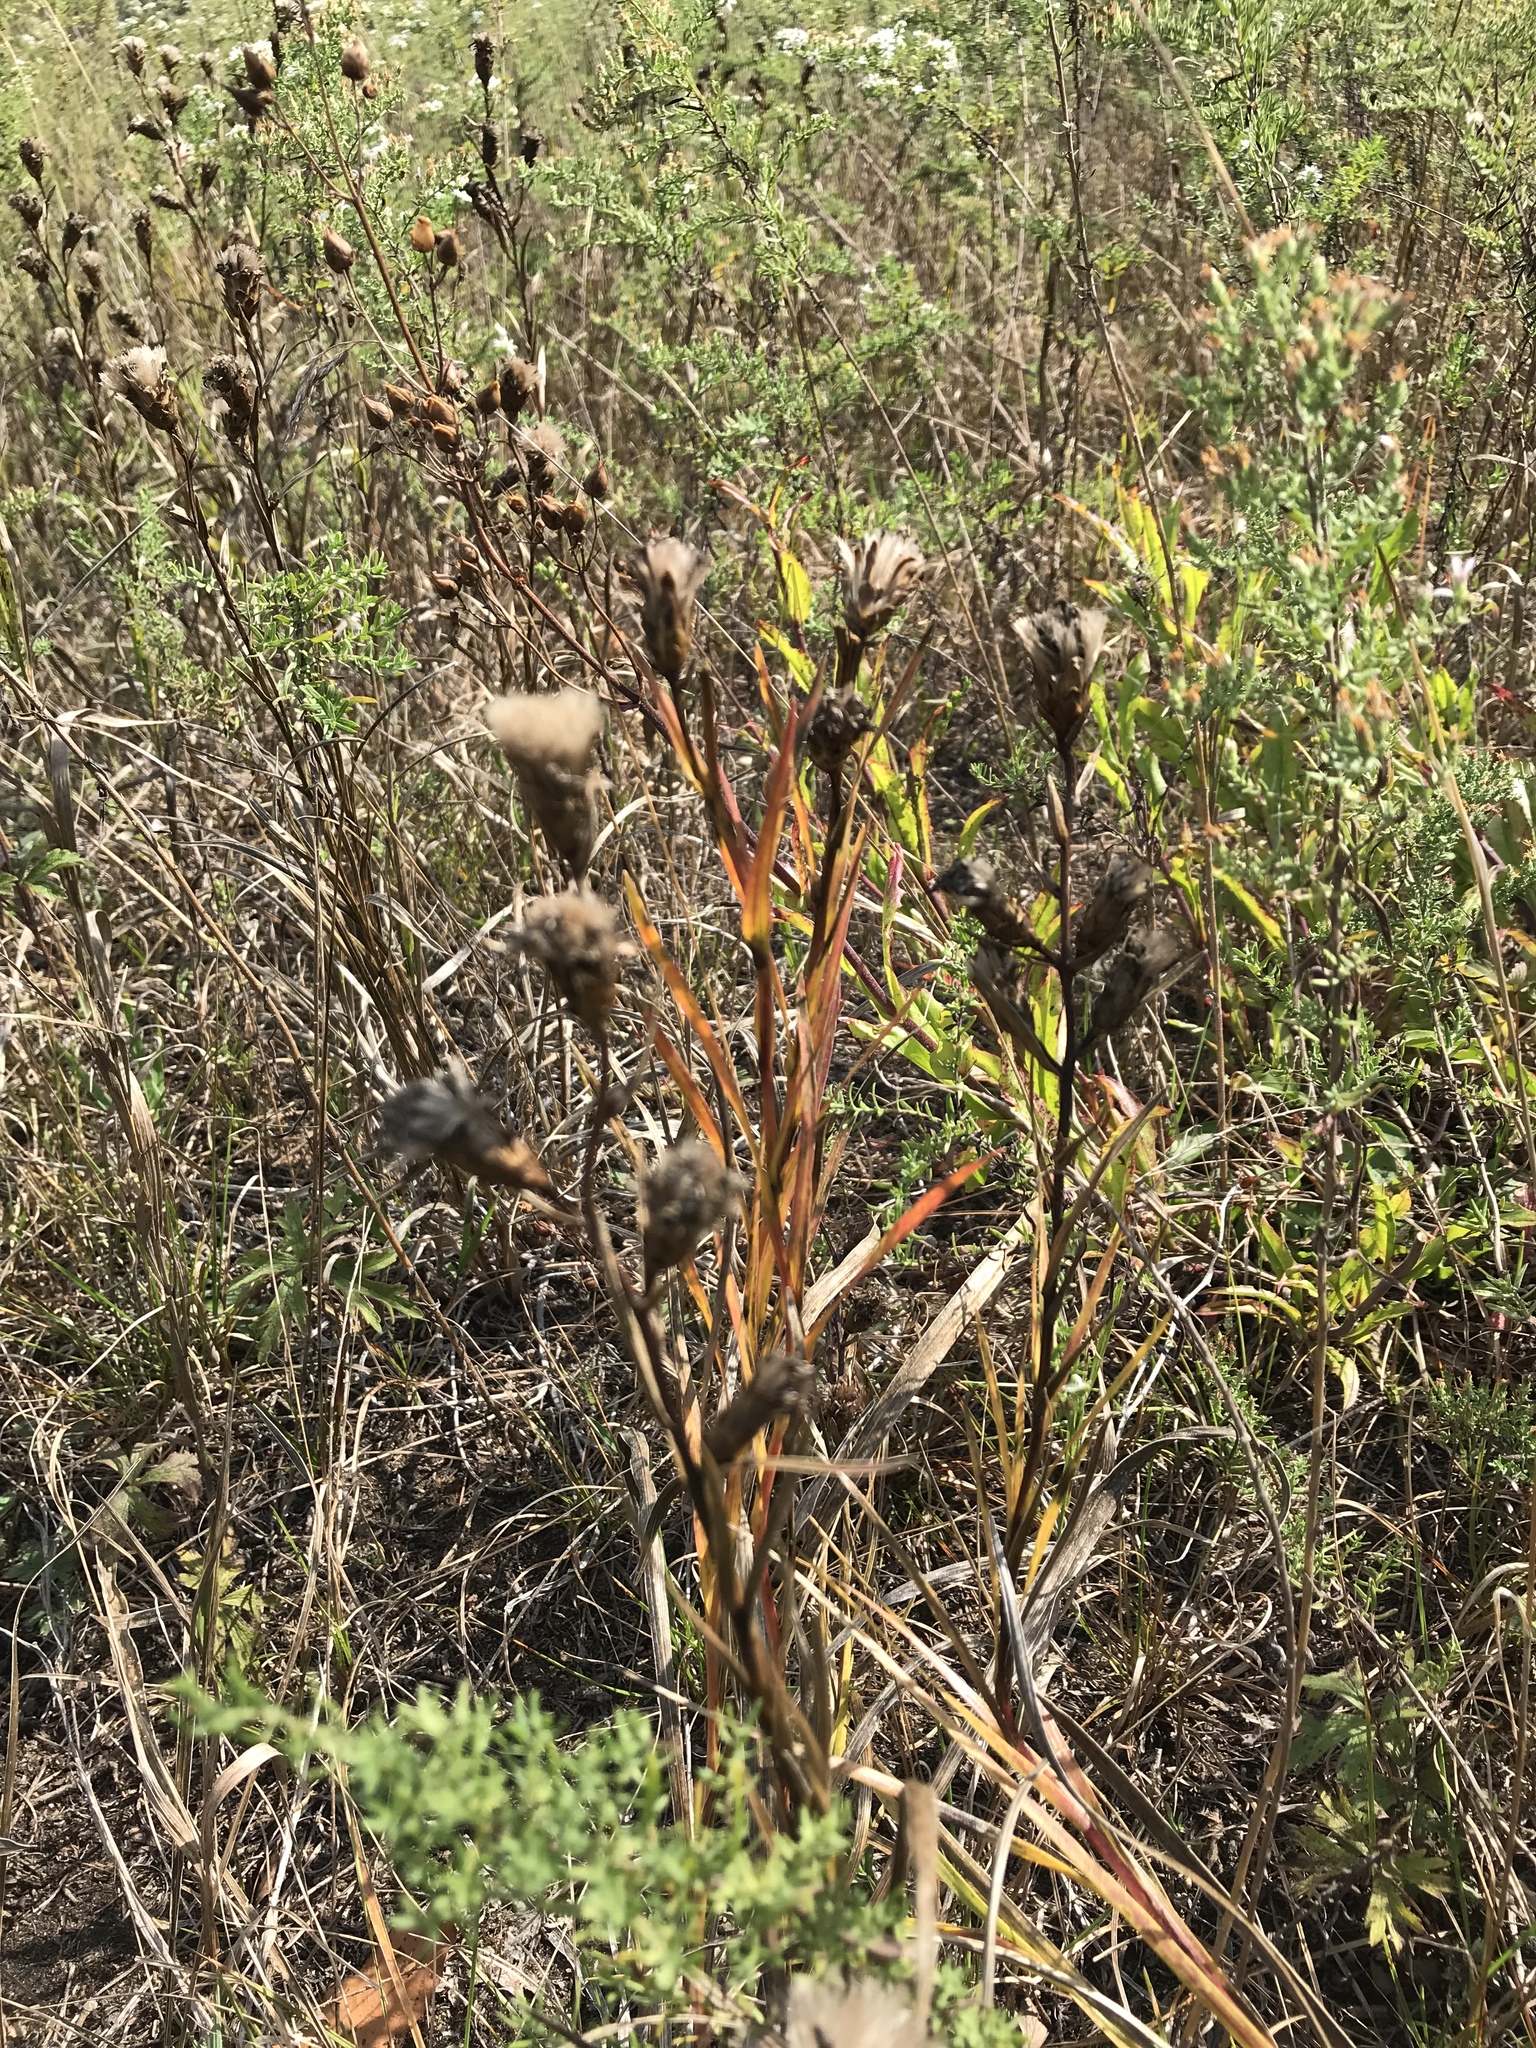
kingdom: Plantae
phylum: Tracheophyta
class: Magnoliopsida
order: Asterales
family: Asteraceae
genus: Liatris
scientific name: Liatris cylindracea
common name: Few-head blazingstar
